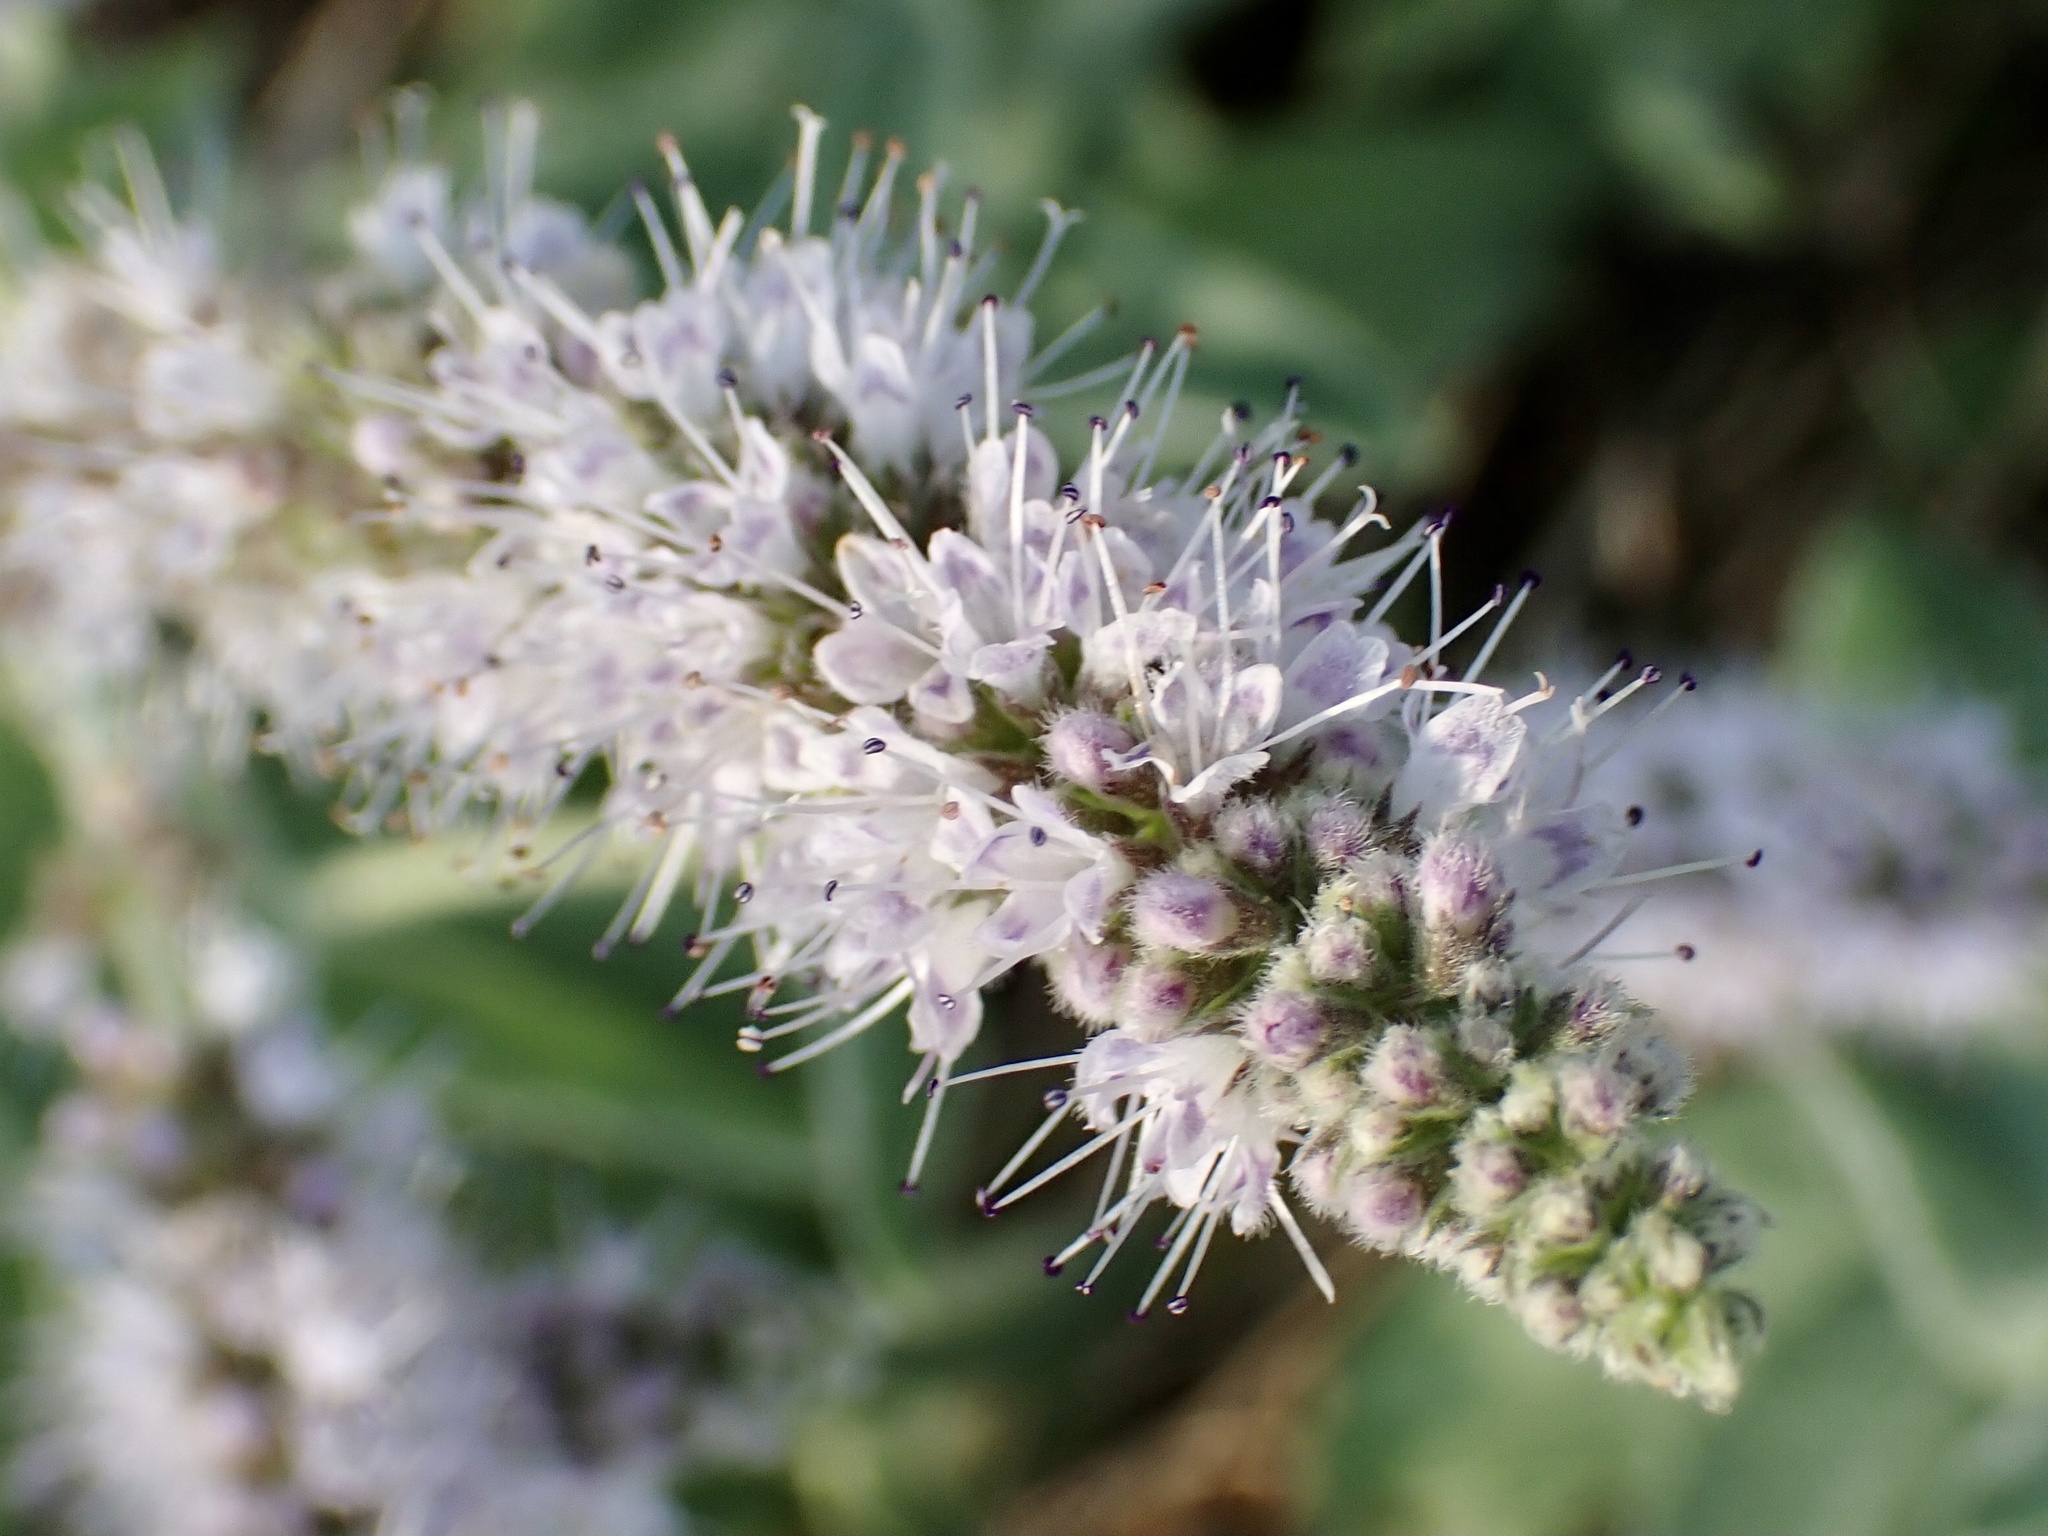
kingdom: Plantae
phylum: Tracheophyta
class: Magnoliopsida
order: Lamiales
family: Lamiaceae
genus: Mentha
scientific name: Mentha longifolia
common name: Horse mint
